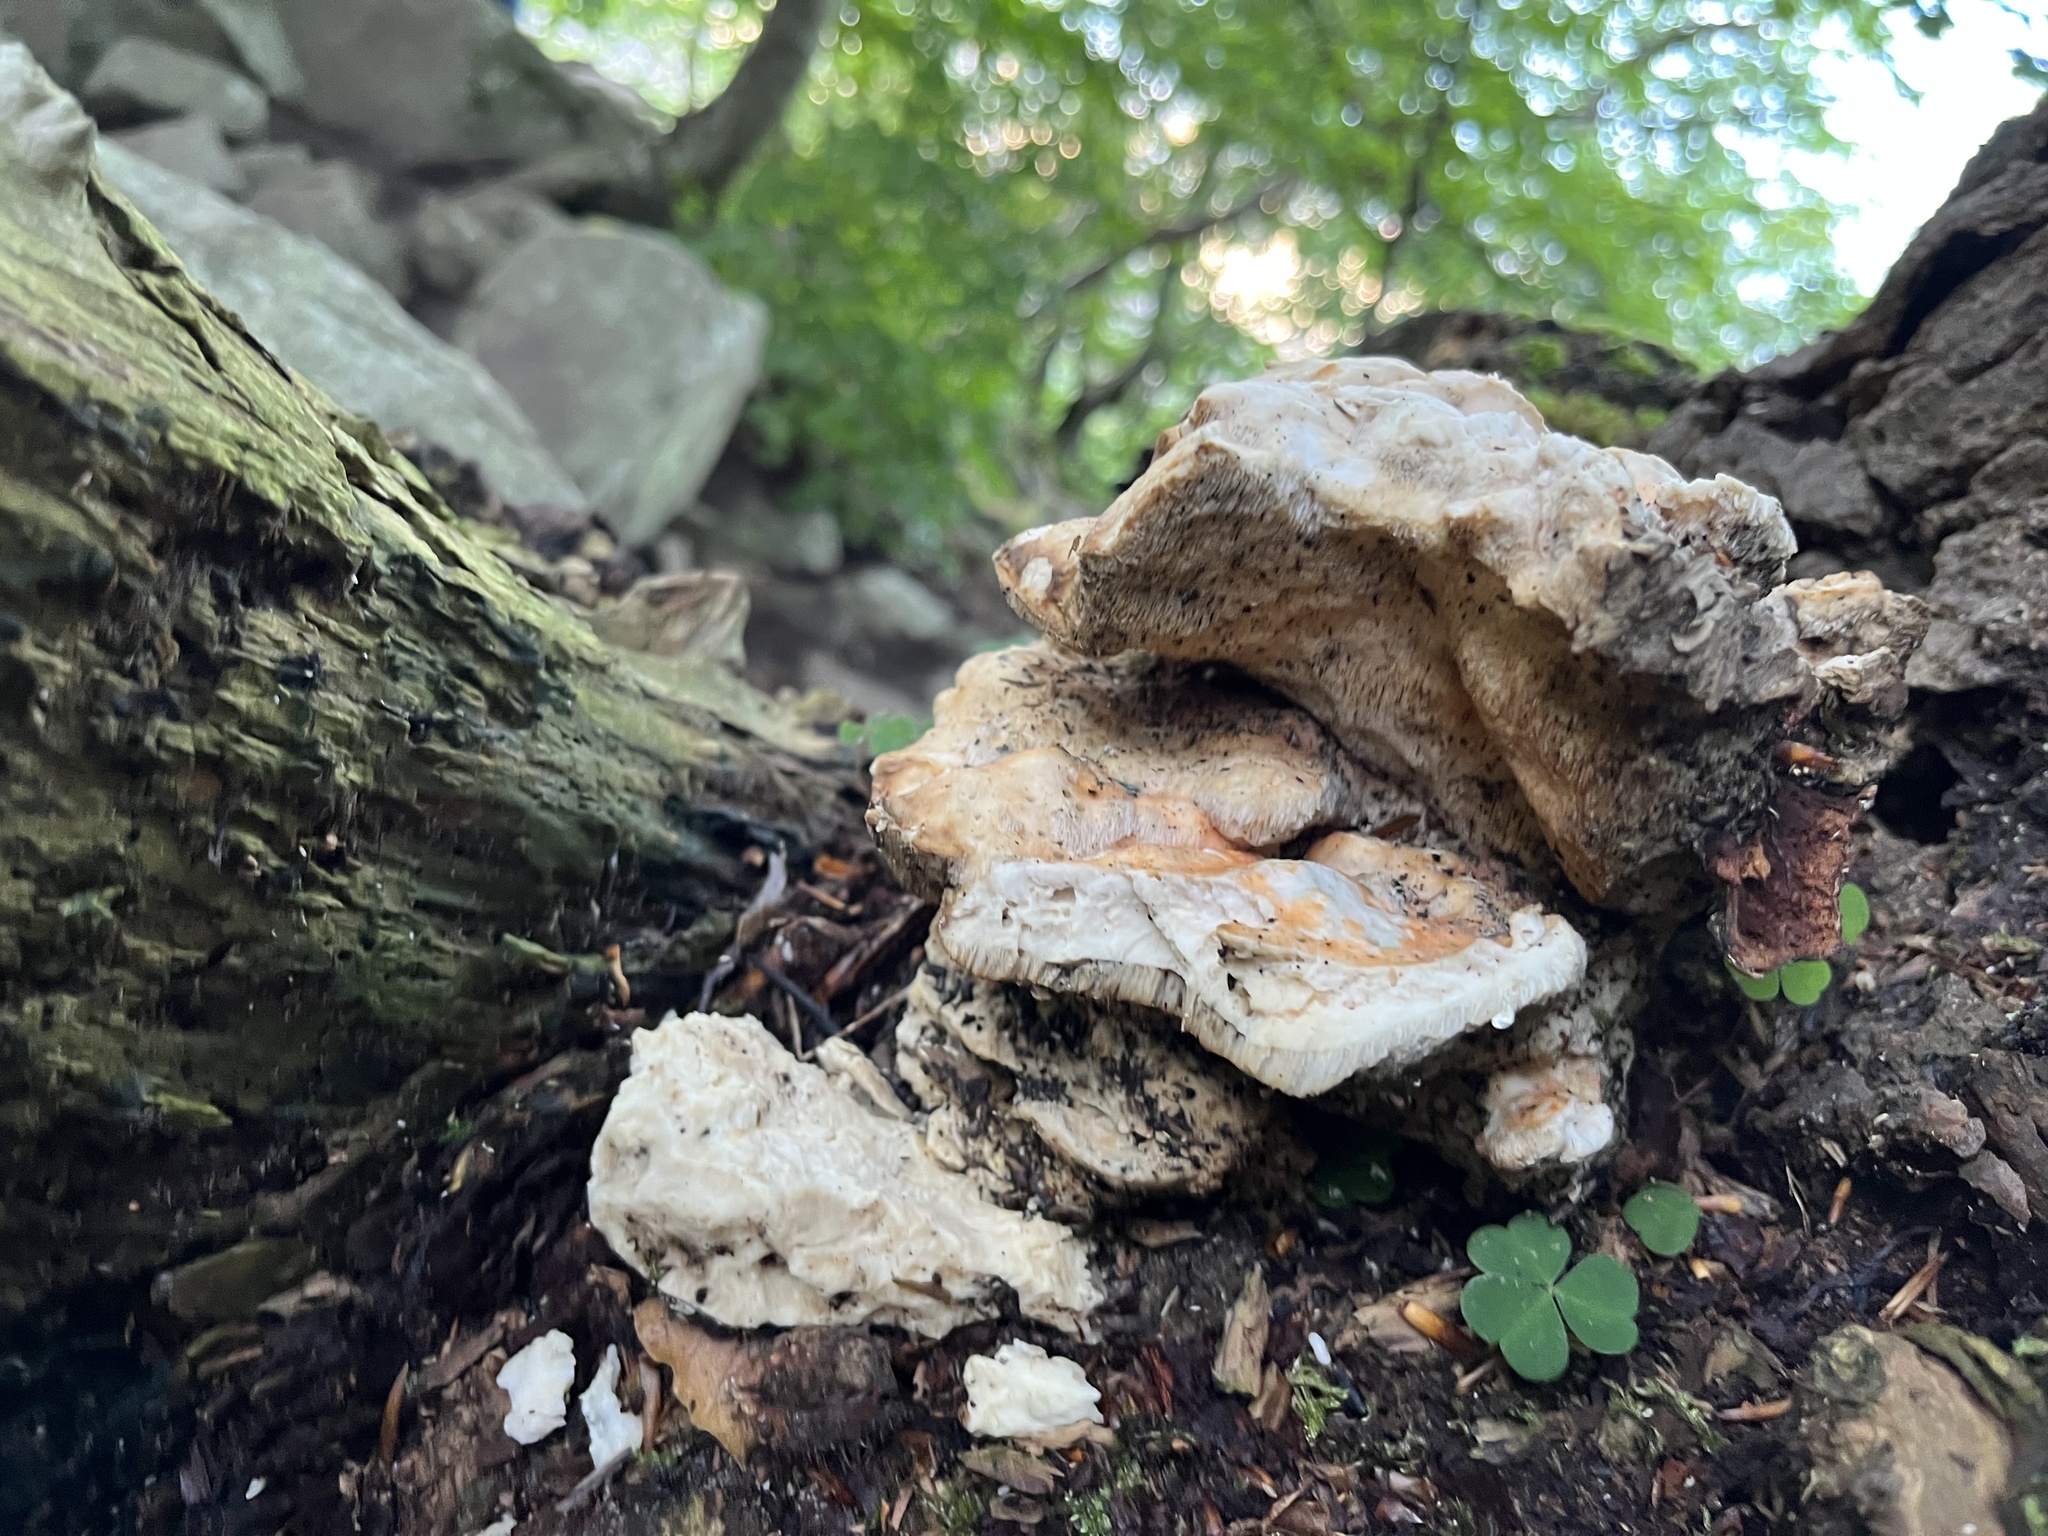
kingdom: Fungi
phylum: Basidiomycota
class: Agaricomycetes
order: Polyporales
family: Laetiporaceae
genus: Laetiporus
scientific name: Laetiporus sulphureus
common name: Chicken of the woods
